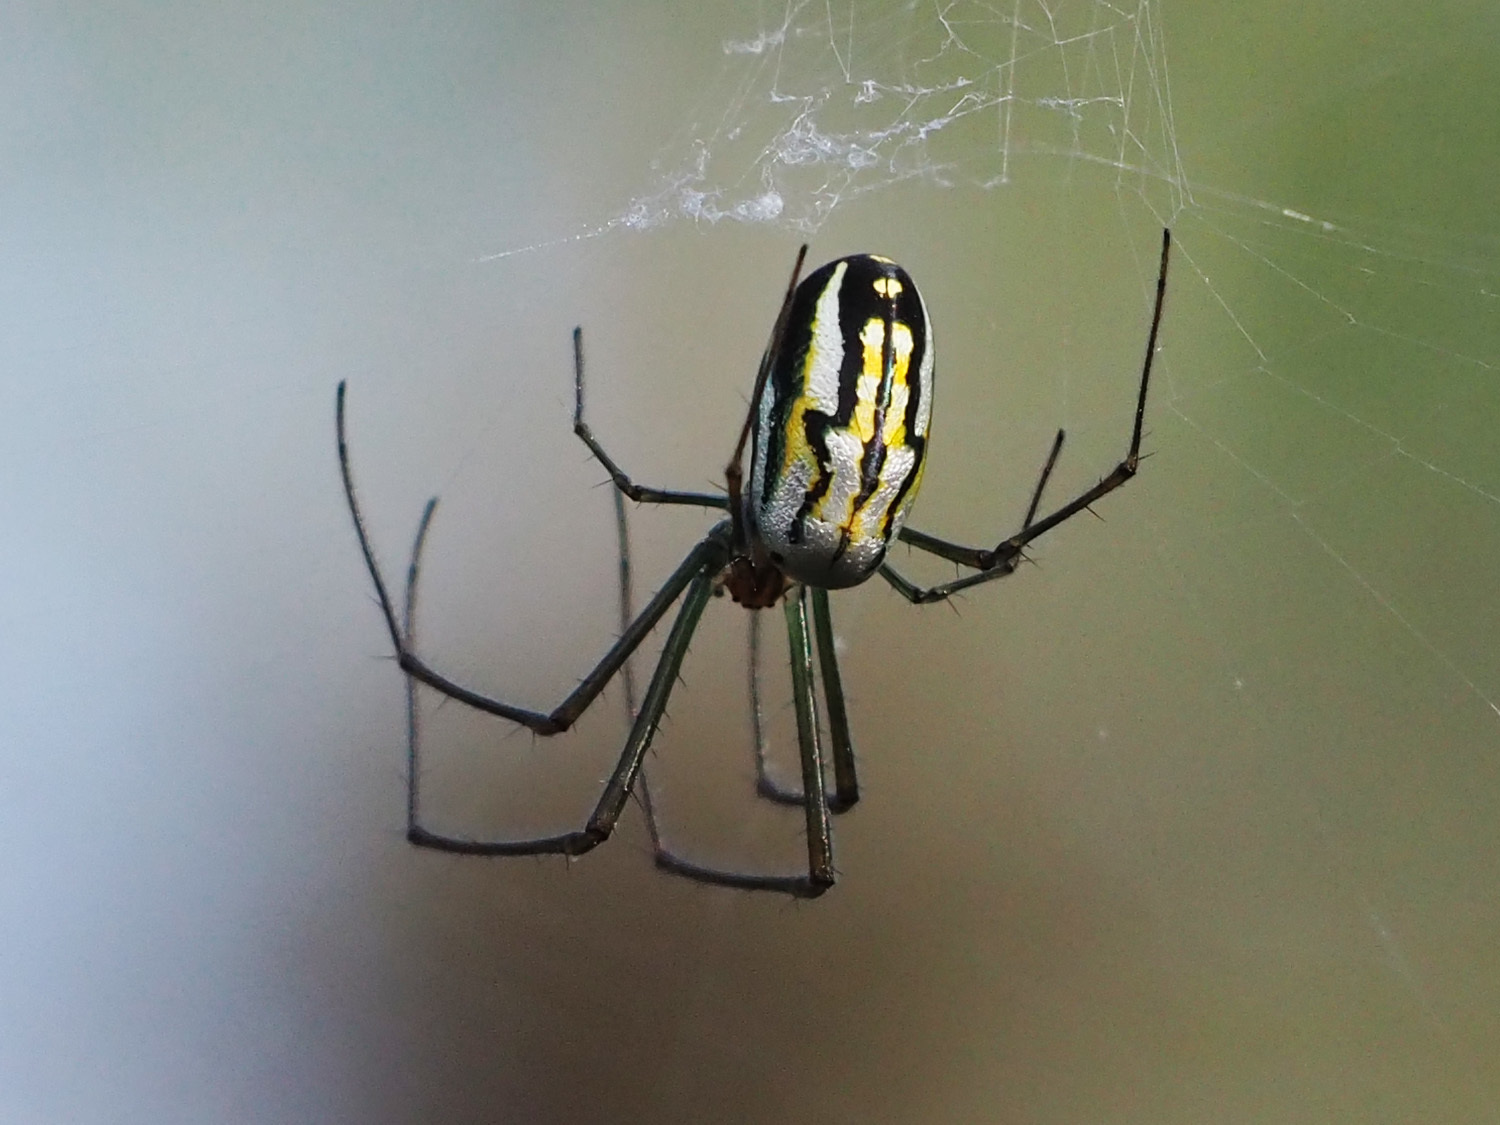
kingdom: Animalia
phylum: Arthropoda
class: Arachnida
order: Araneae
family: Tetragnathidae
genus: Leucauge
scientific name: Leucauge argyra
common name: Longjawed orb weavers
